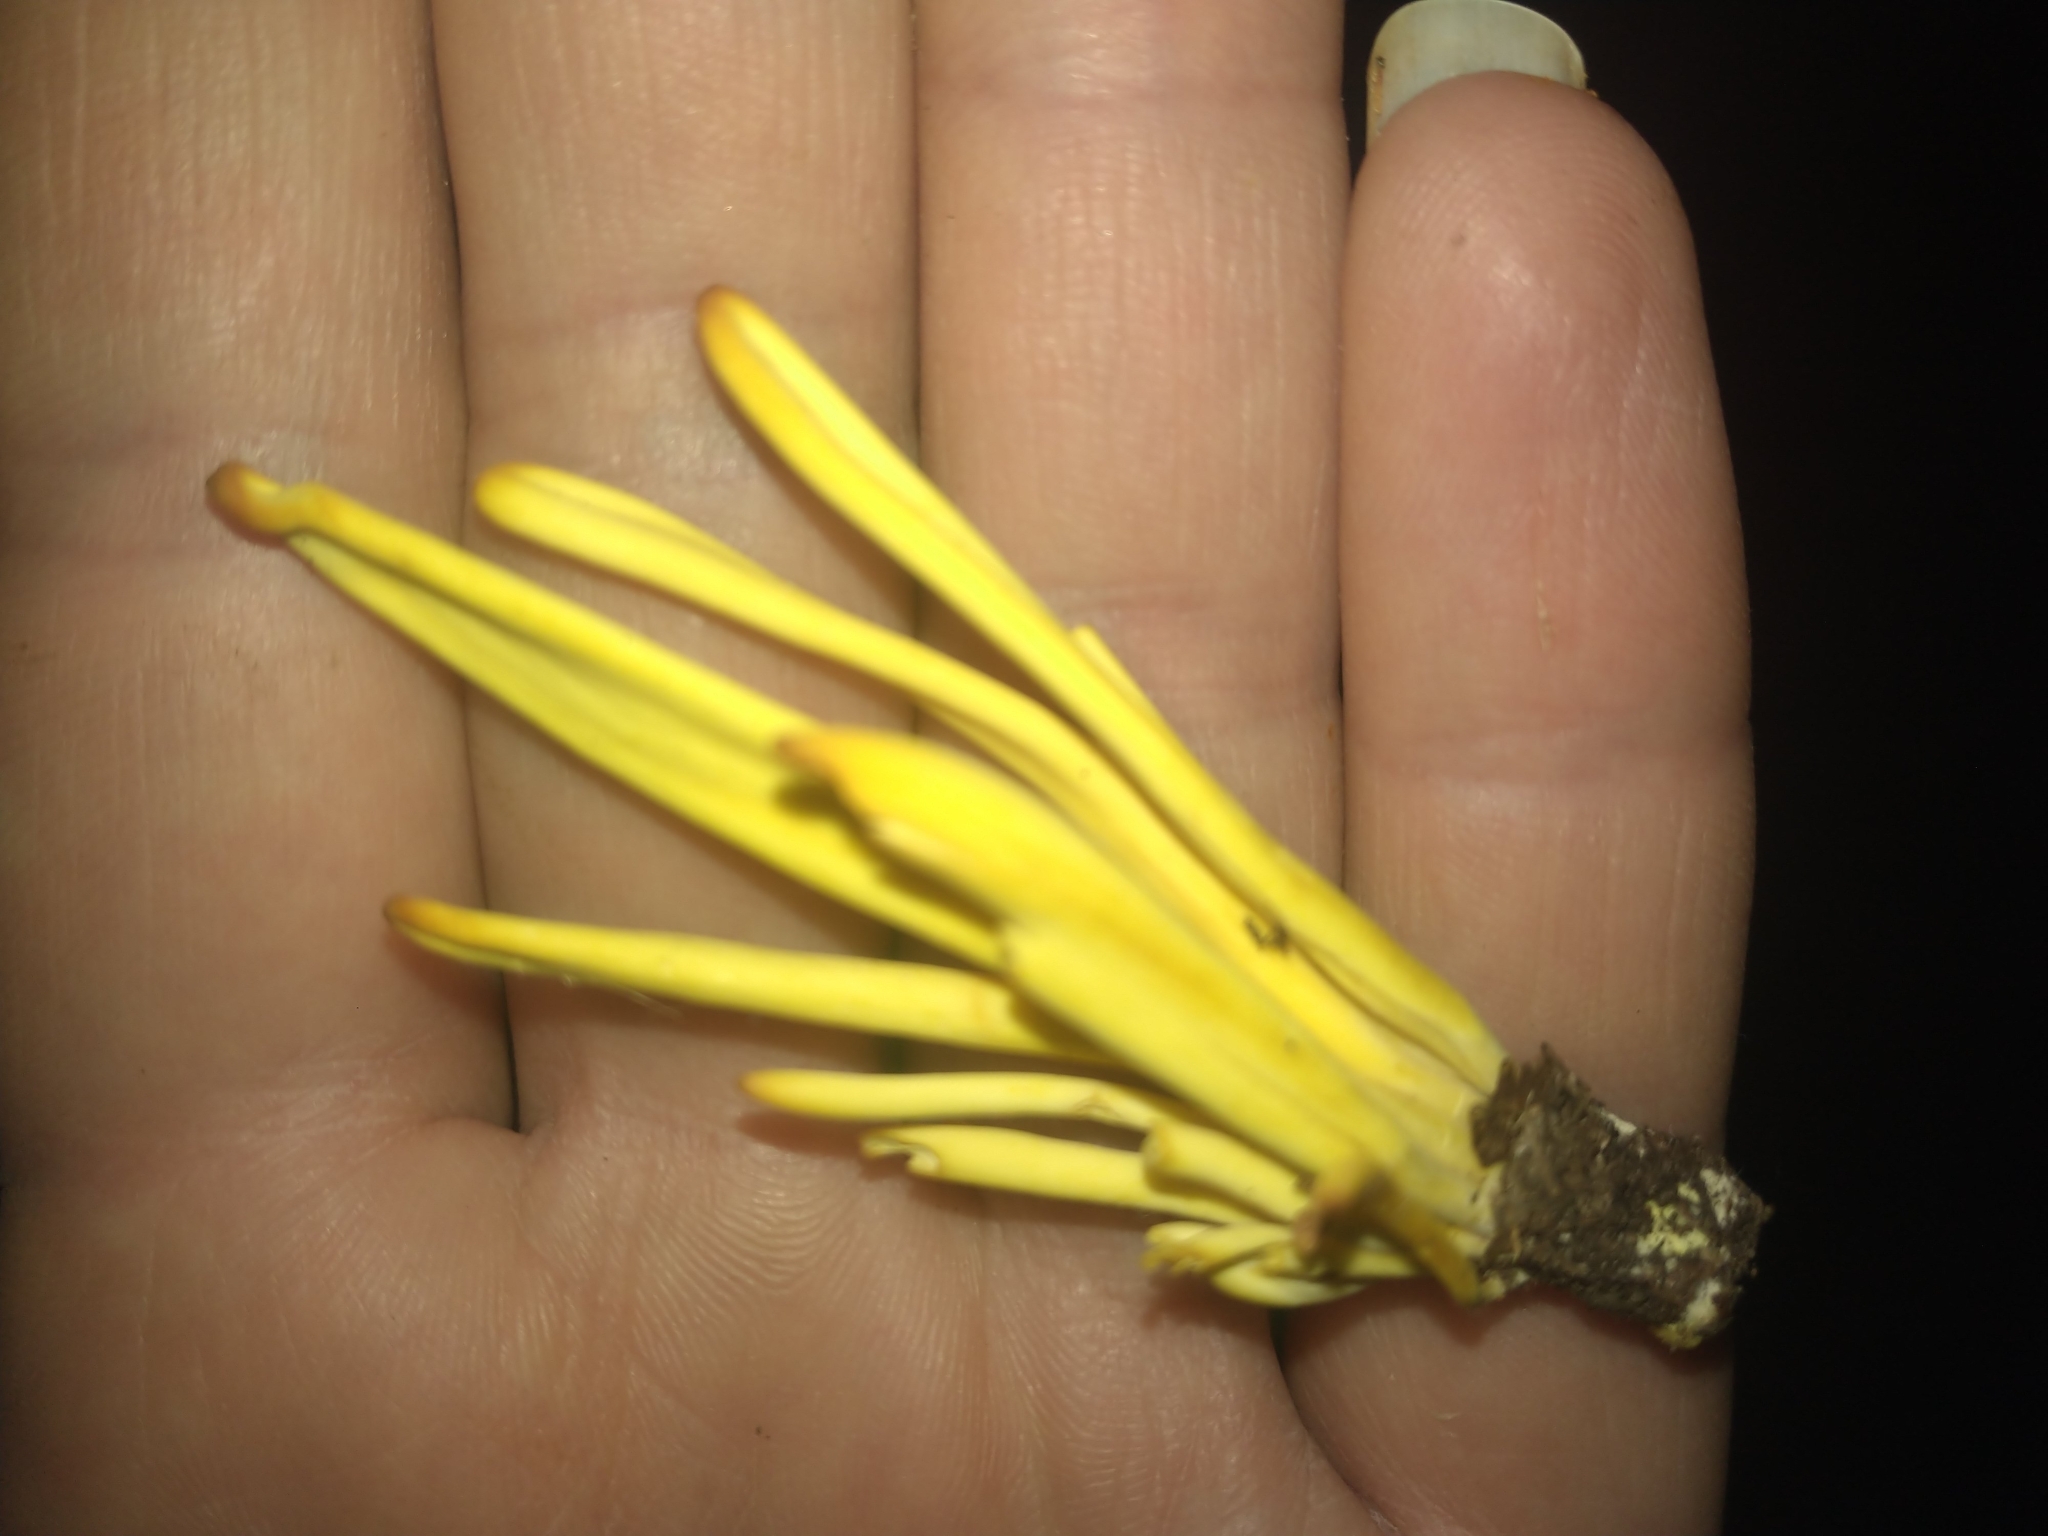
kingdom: Fungi
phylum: Basidiomycota
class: Agaricomycetes
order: Agaricales
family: Clavariaceae
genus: Clavulinopsis
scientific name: Clavulinopsis fusiformis
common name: Golden spindles
